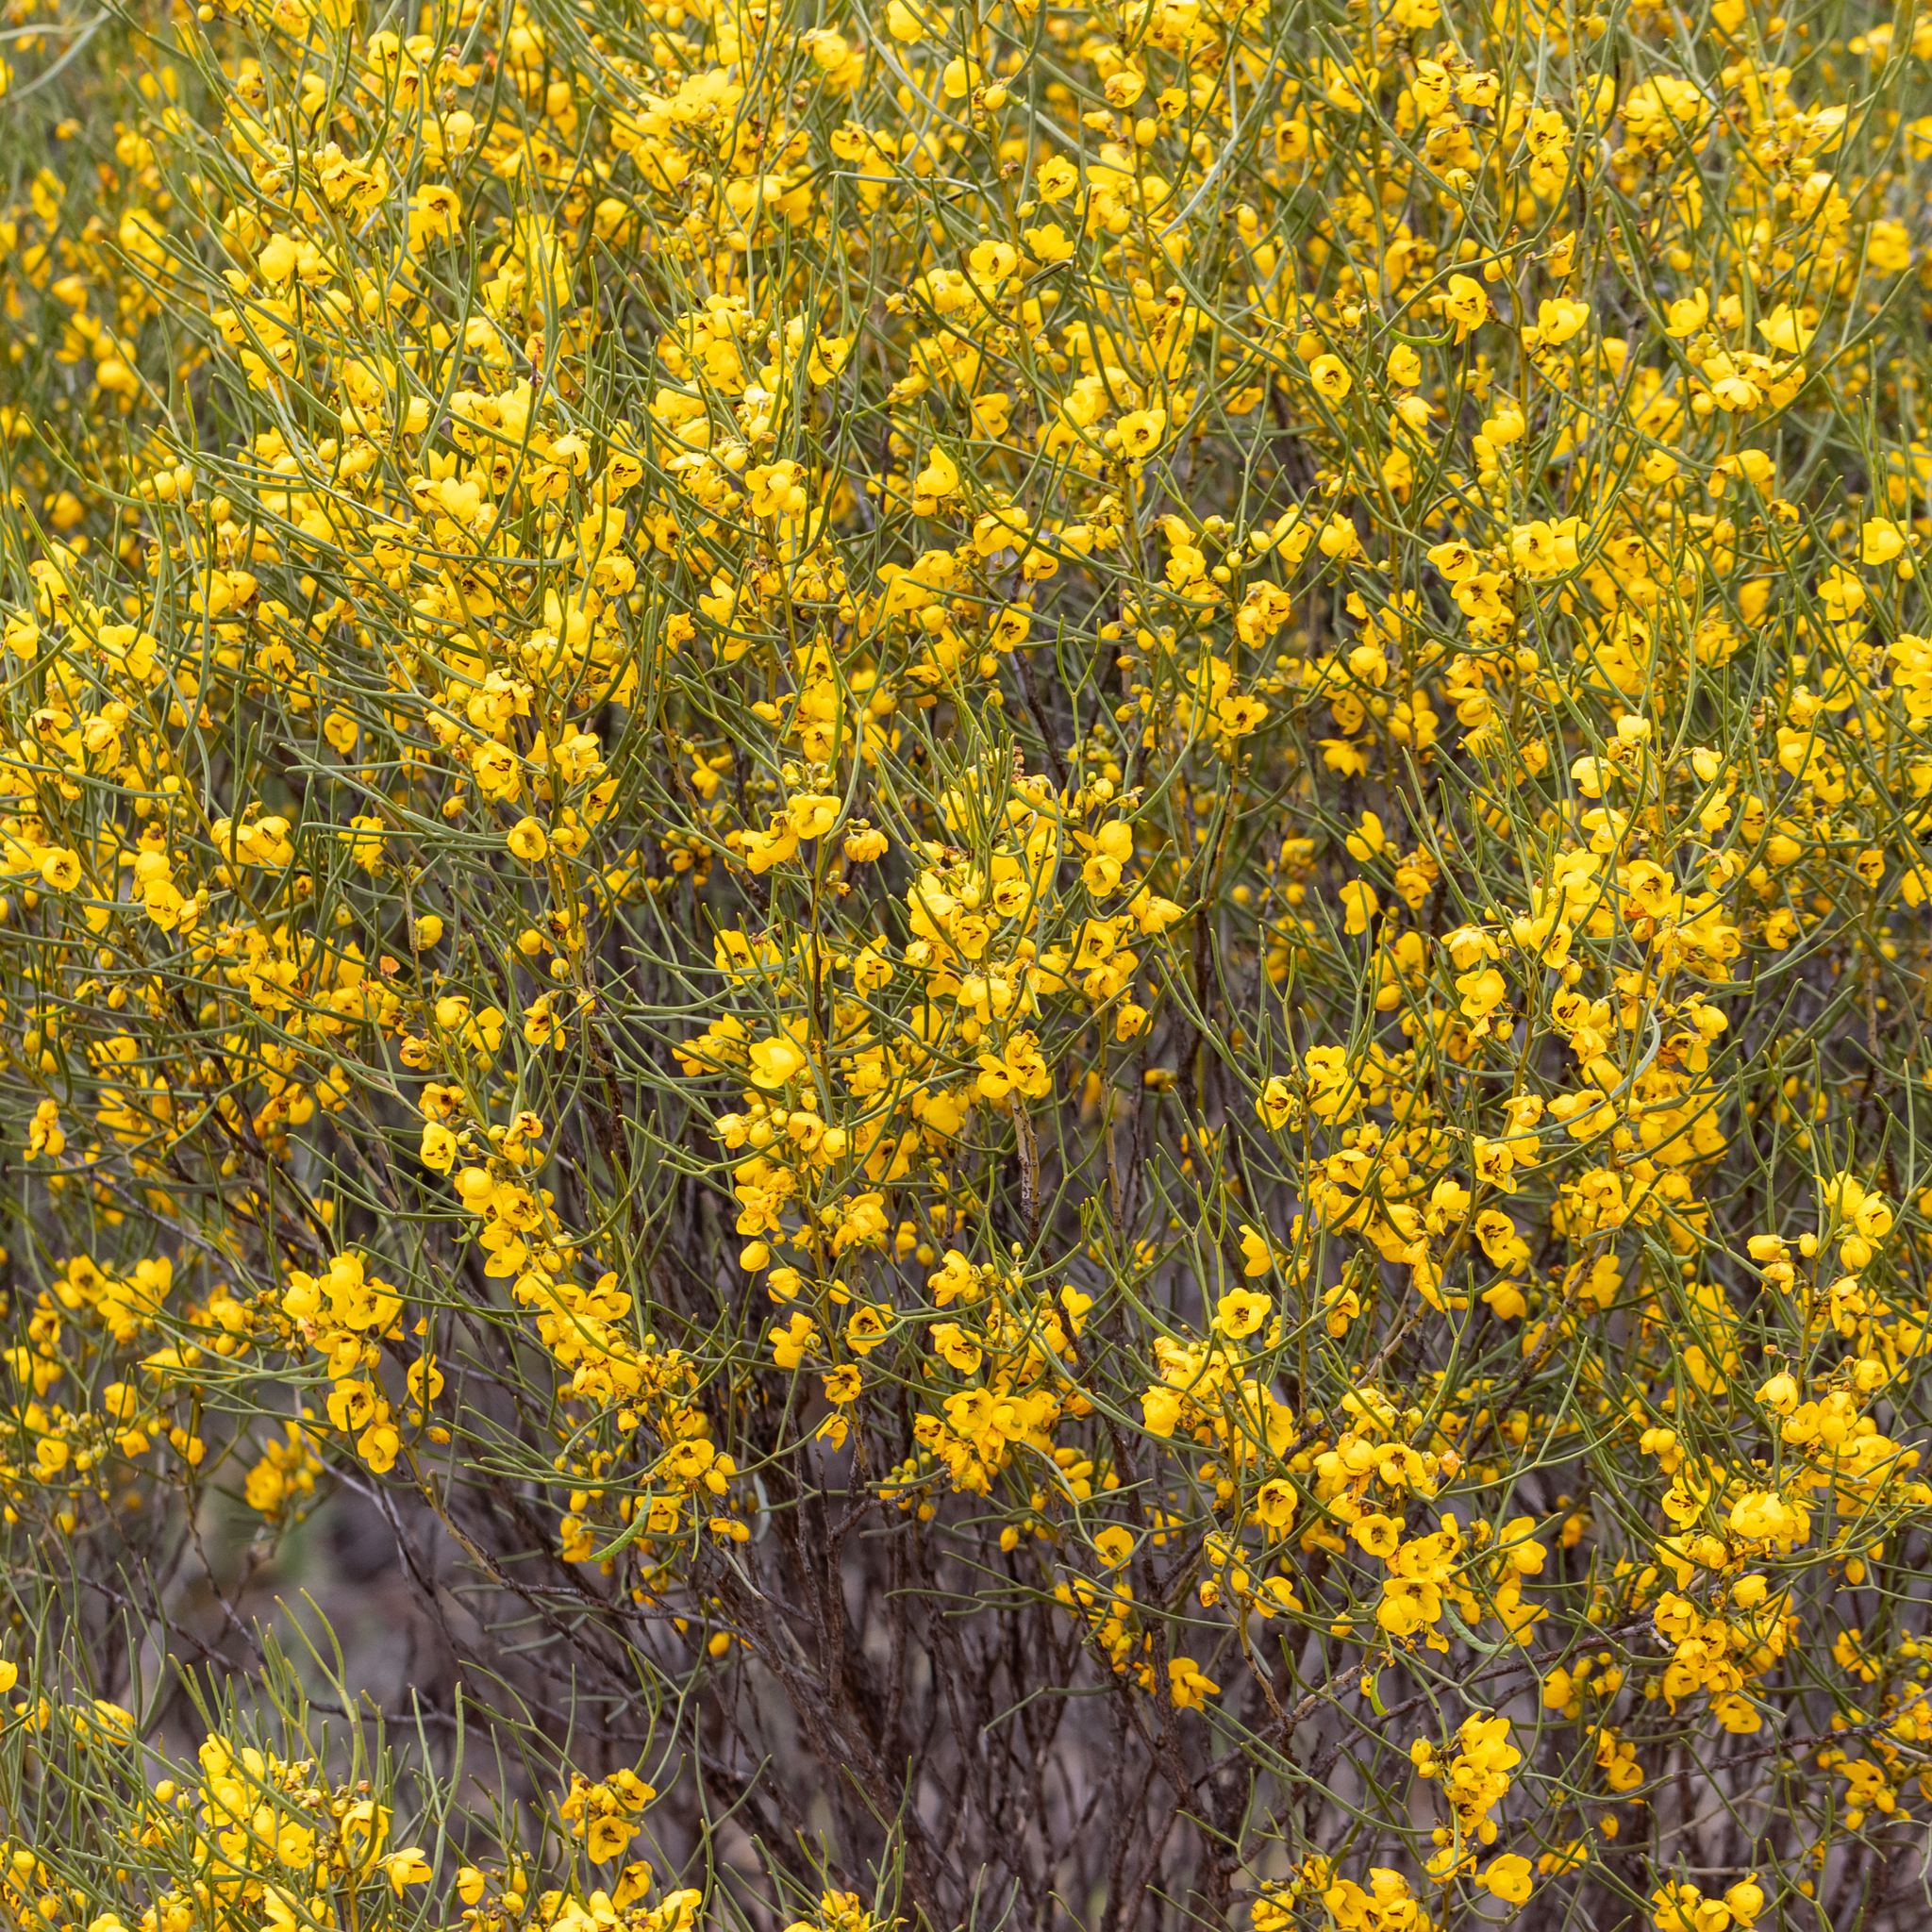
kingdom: Plantae
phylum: Tracheophyta
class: Magnoliopsida
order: Fabales
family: Fabaceae
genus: Senna
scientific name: Senna artemisioides
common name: Burnt-leaved acacia
